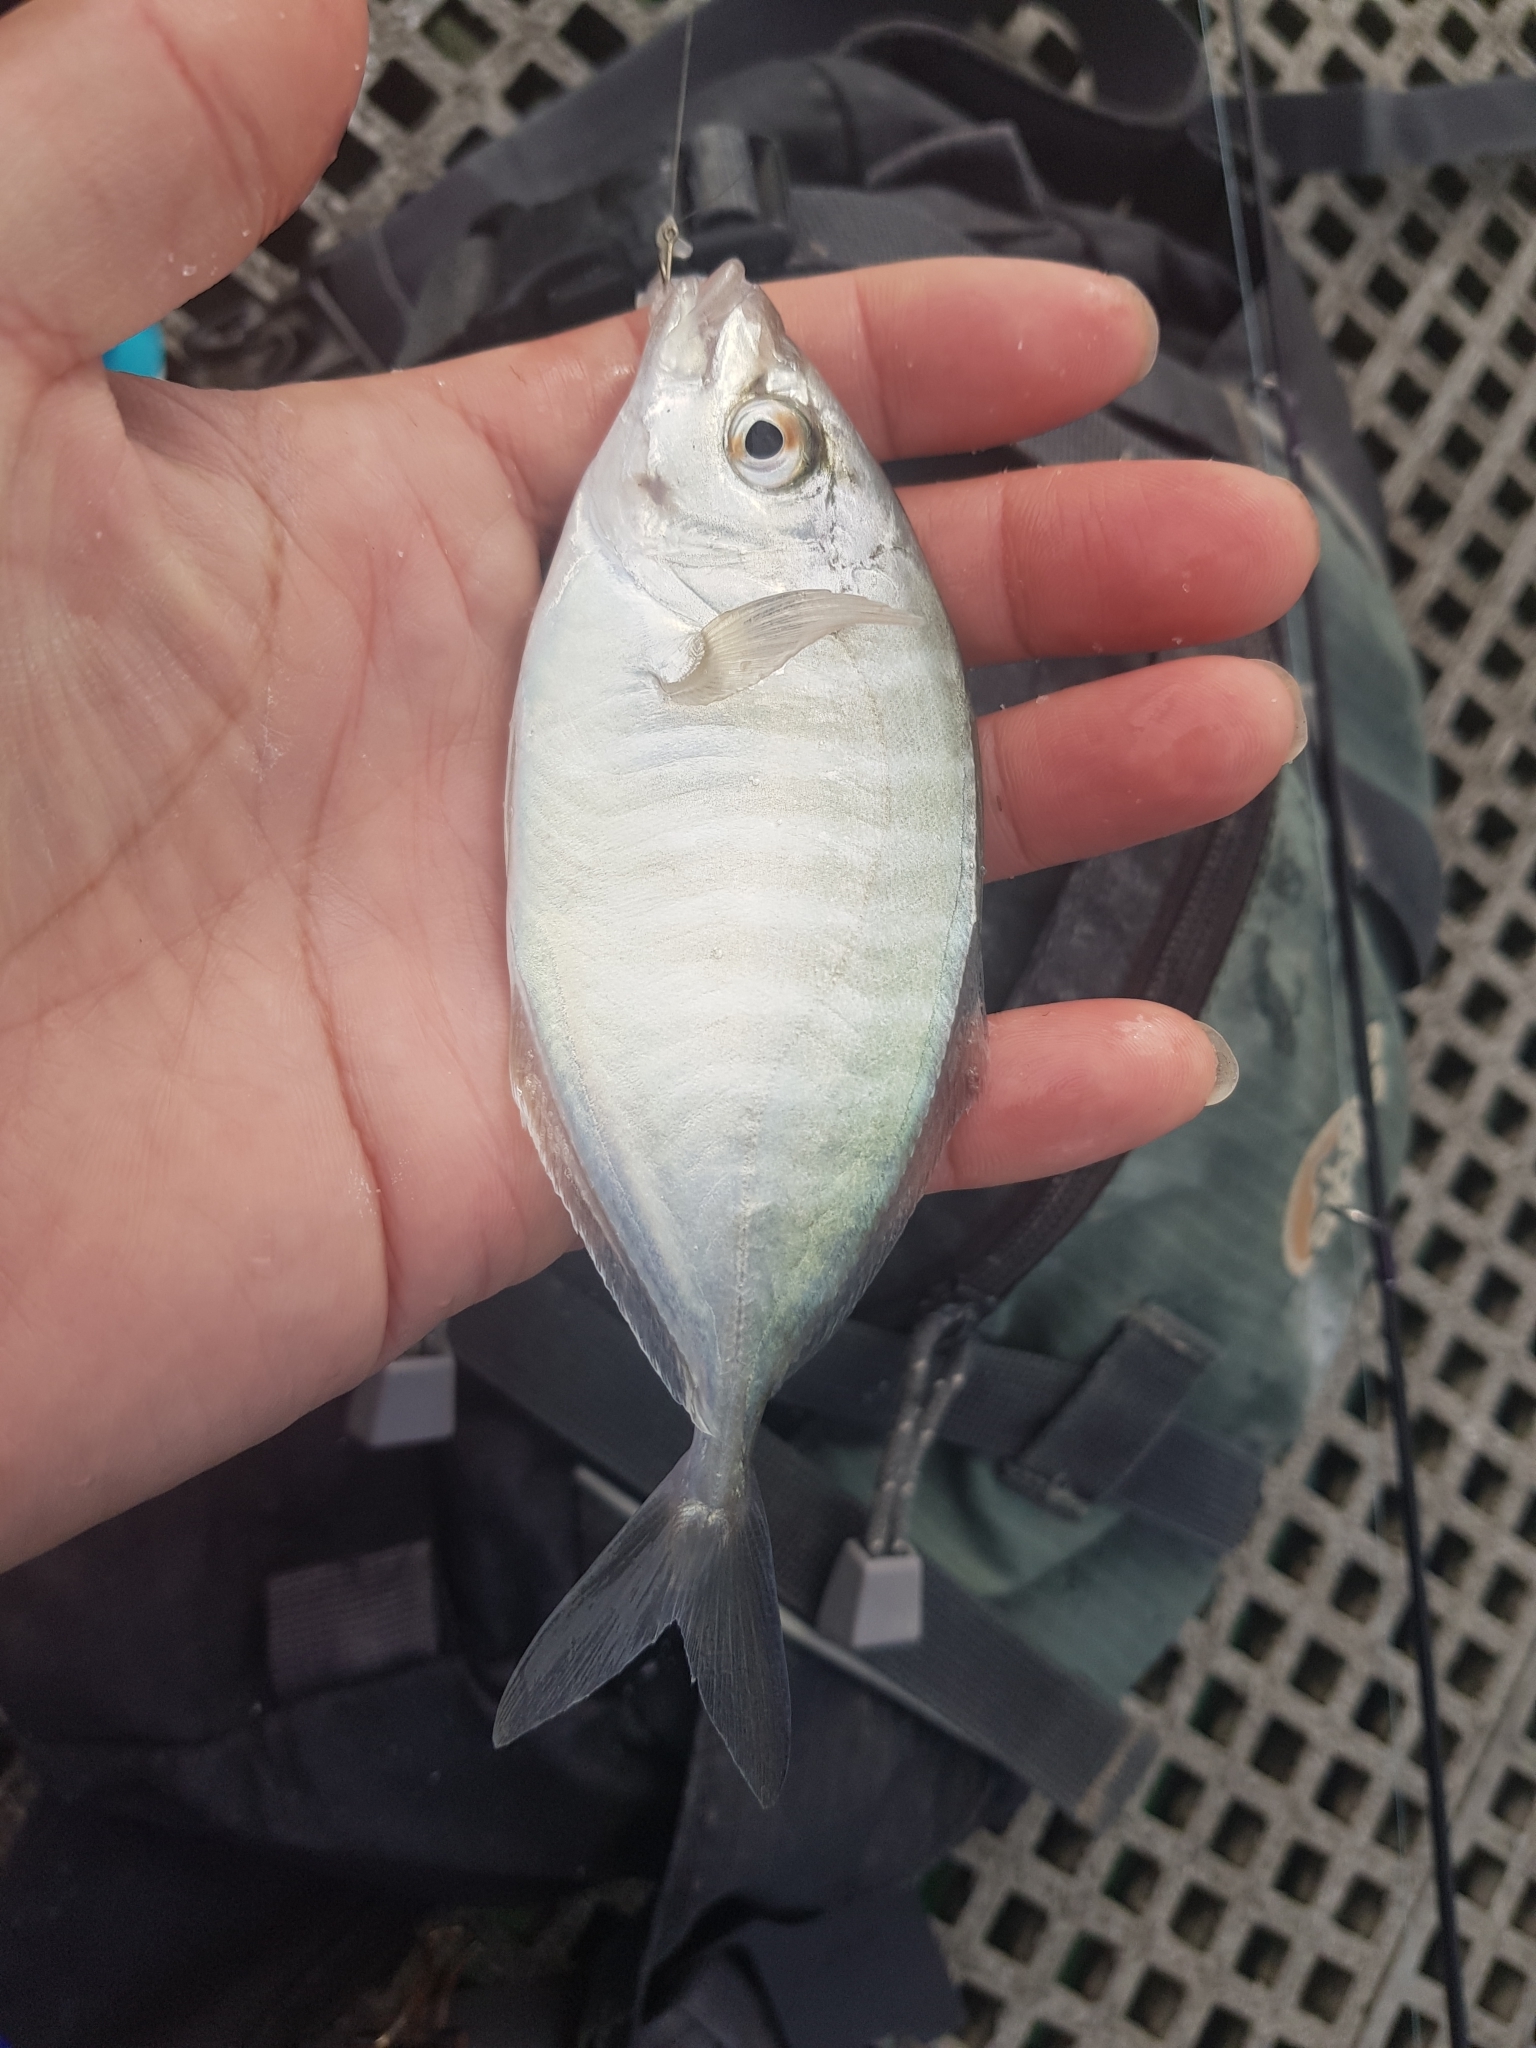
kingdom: Animalia
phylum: Chordata
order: Perciformes
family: Carangidae
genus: Pseudocaranx
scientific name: Pseudocaranx dentex
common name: White trevally
